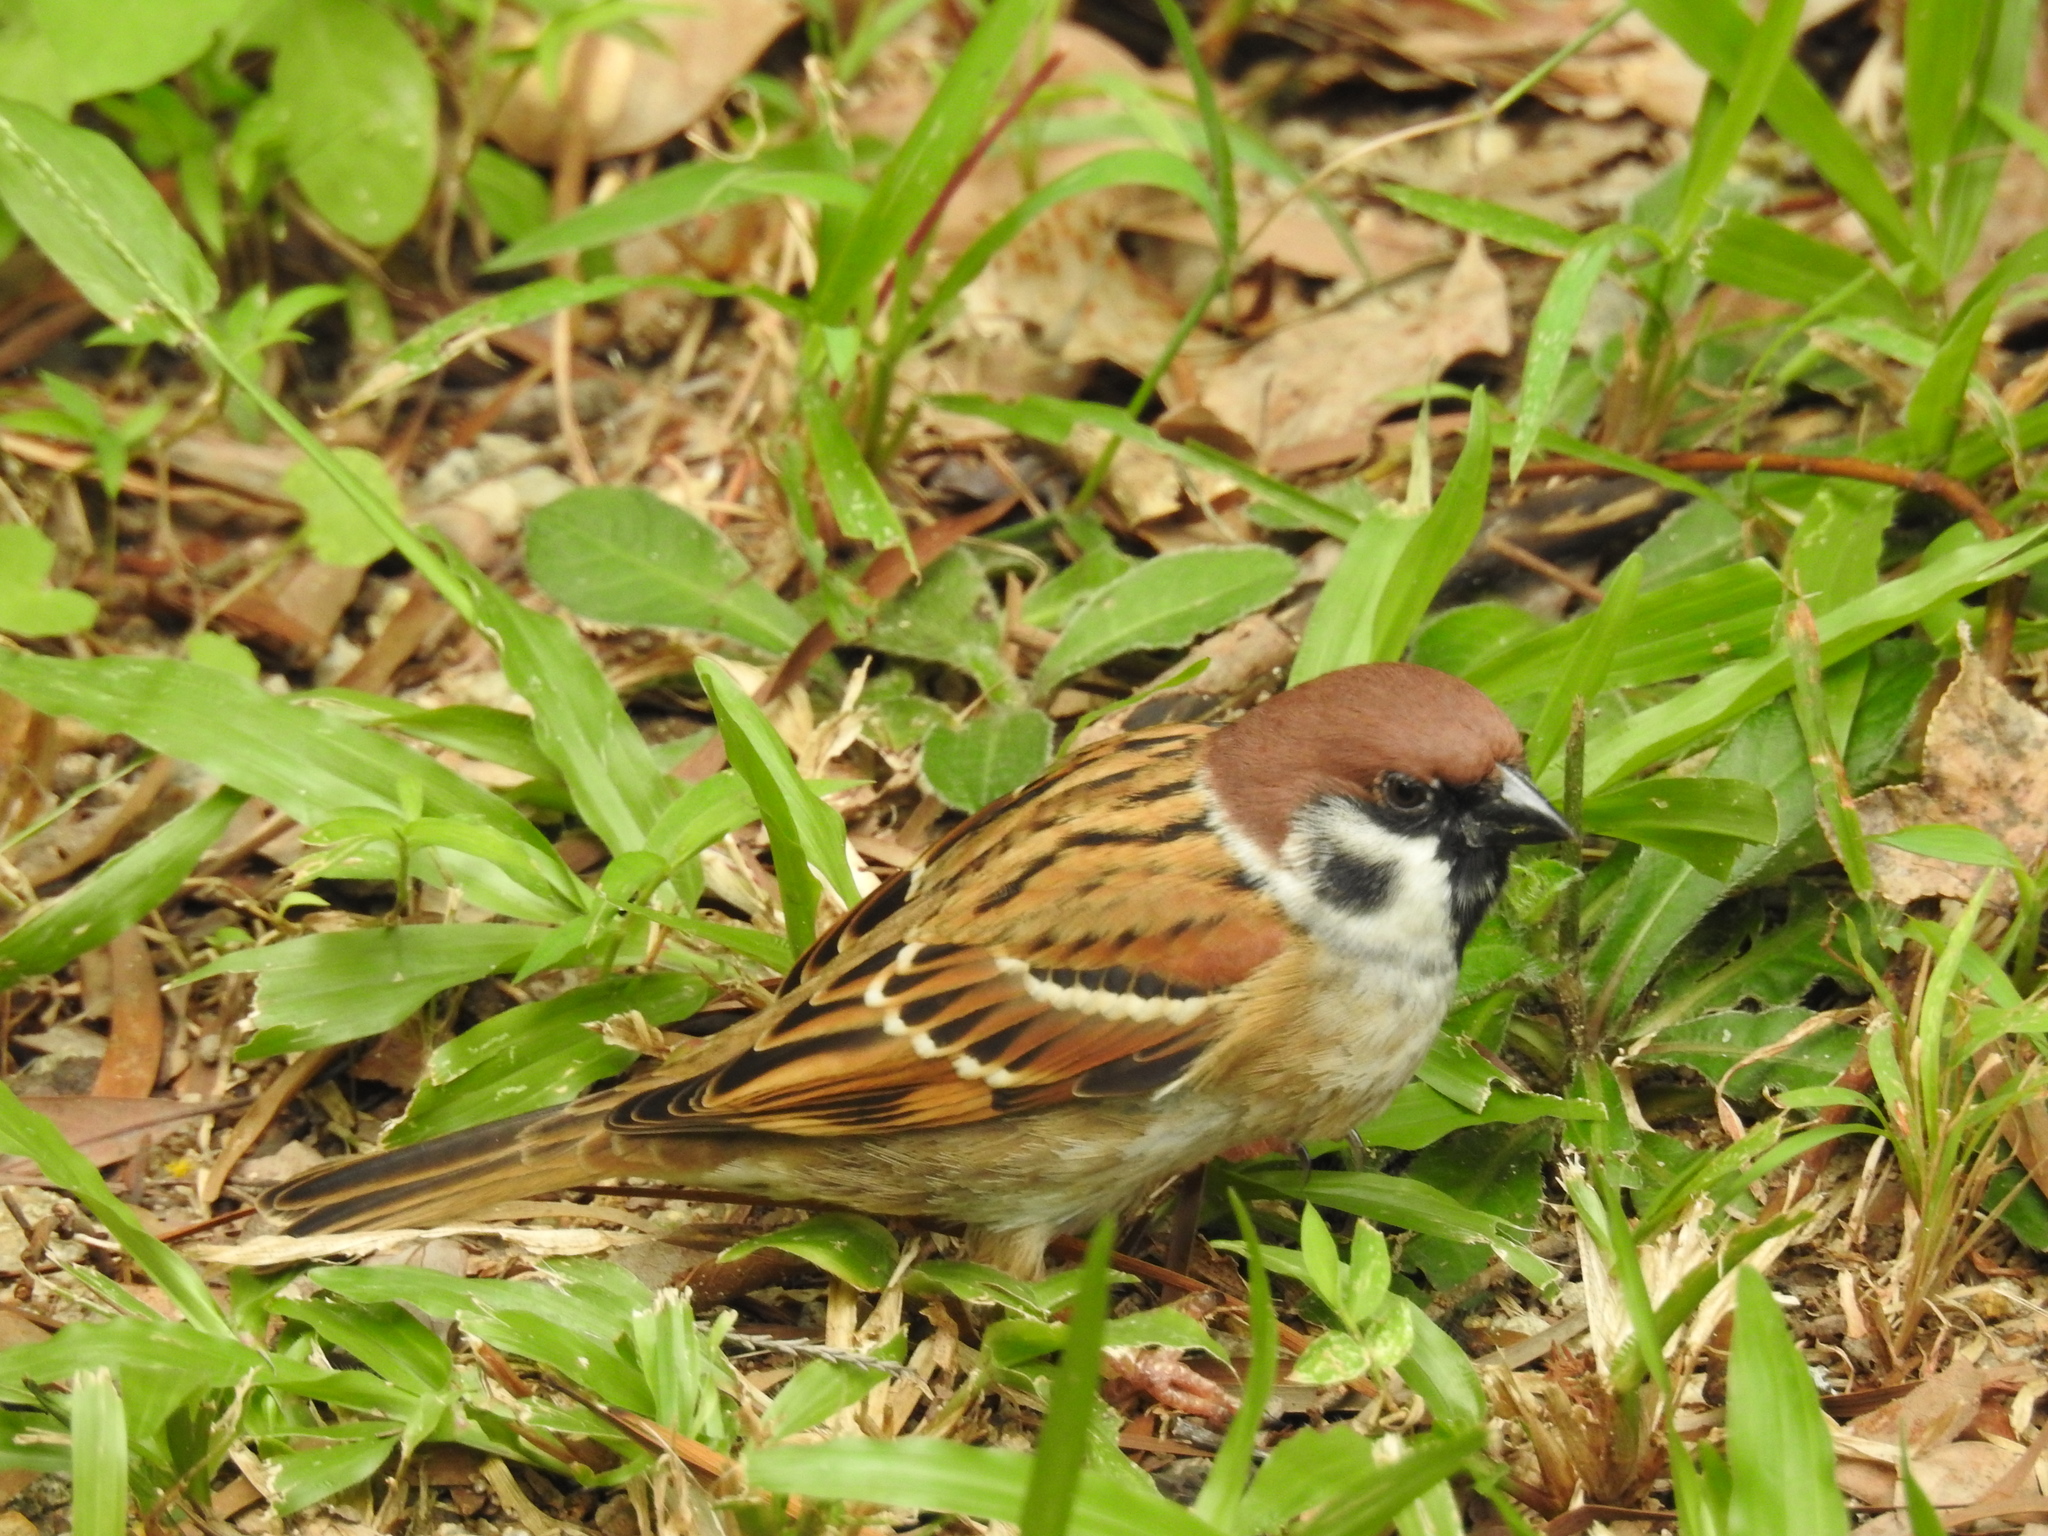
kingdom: Animalia
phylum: Chordata
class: Aves
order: Passeriformes
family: Passeridae
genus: Passer
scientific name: Passer montanus
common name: Eurasian tree sparrow
